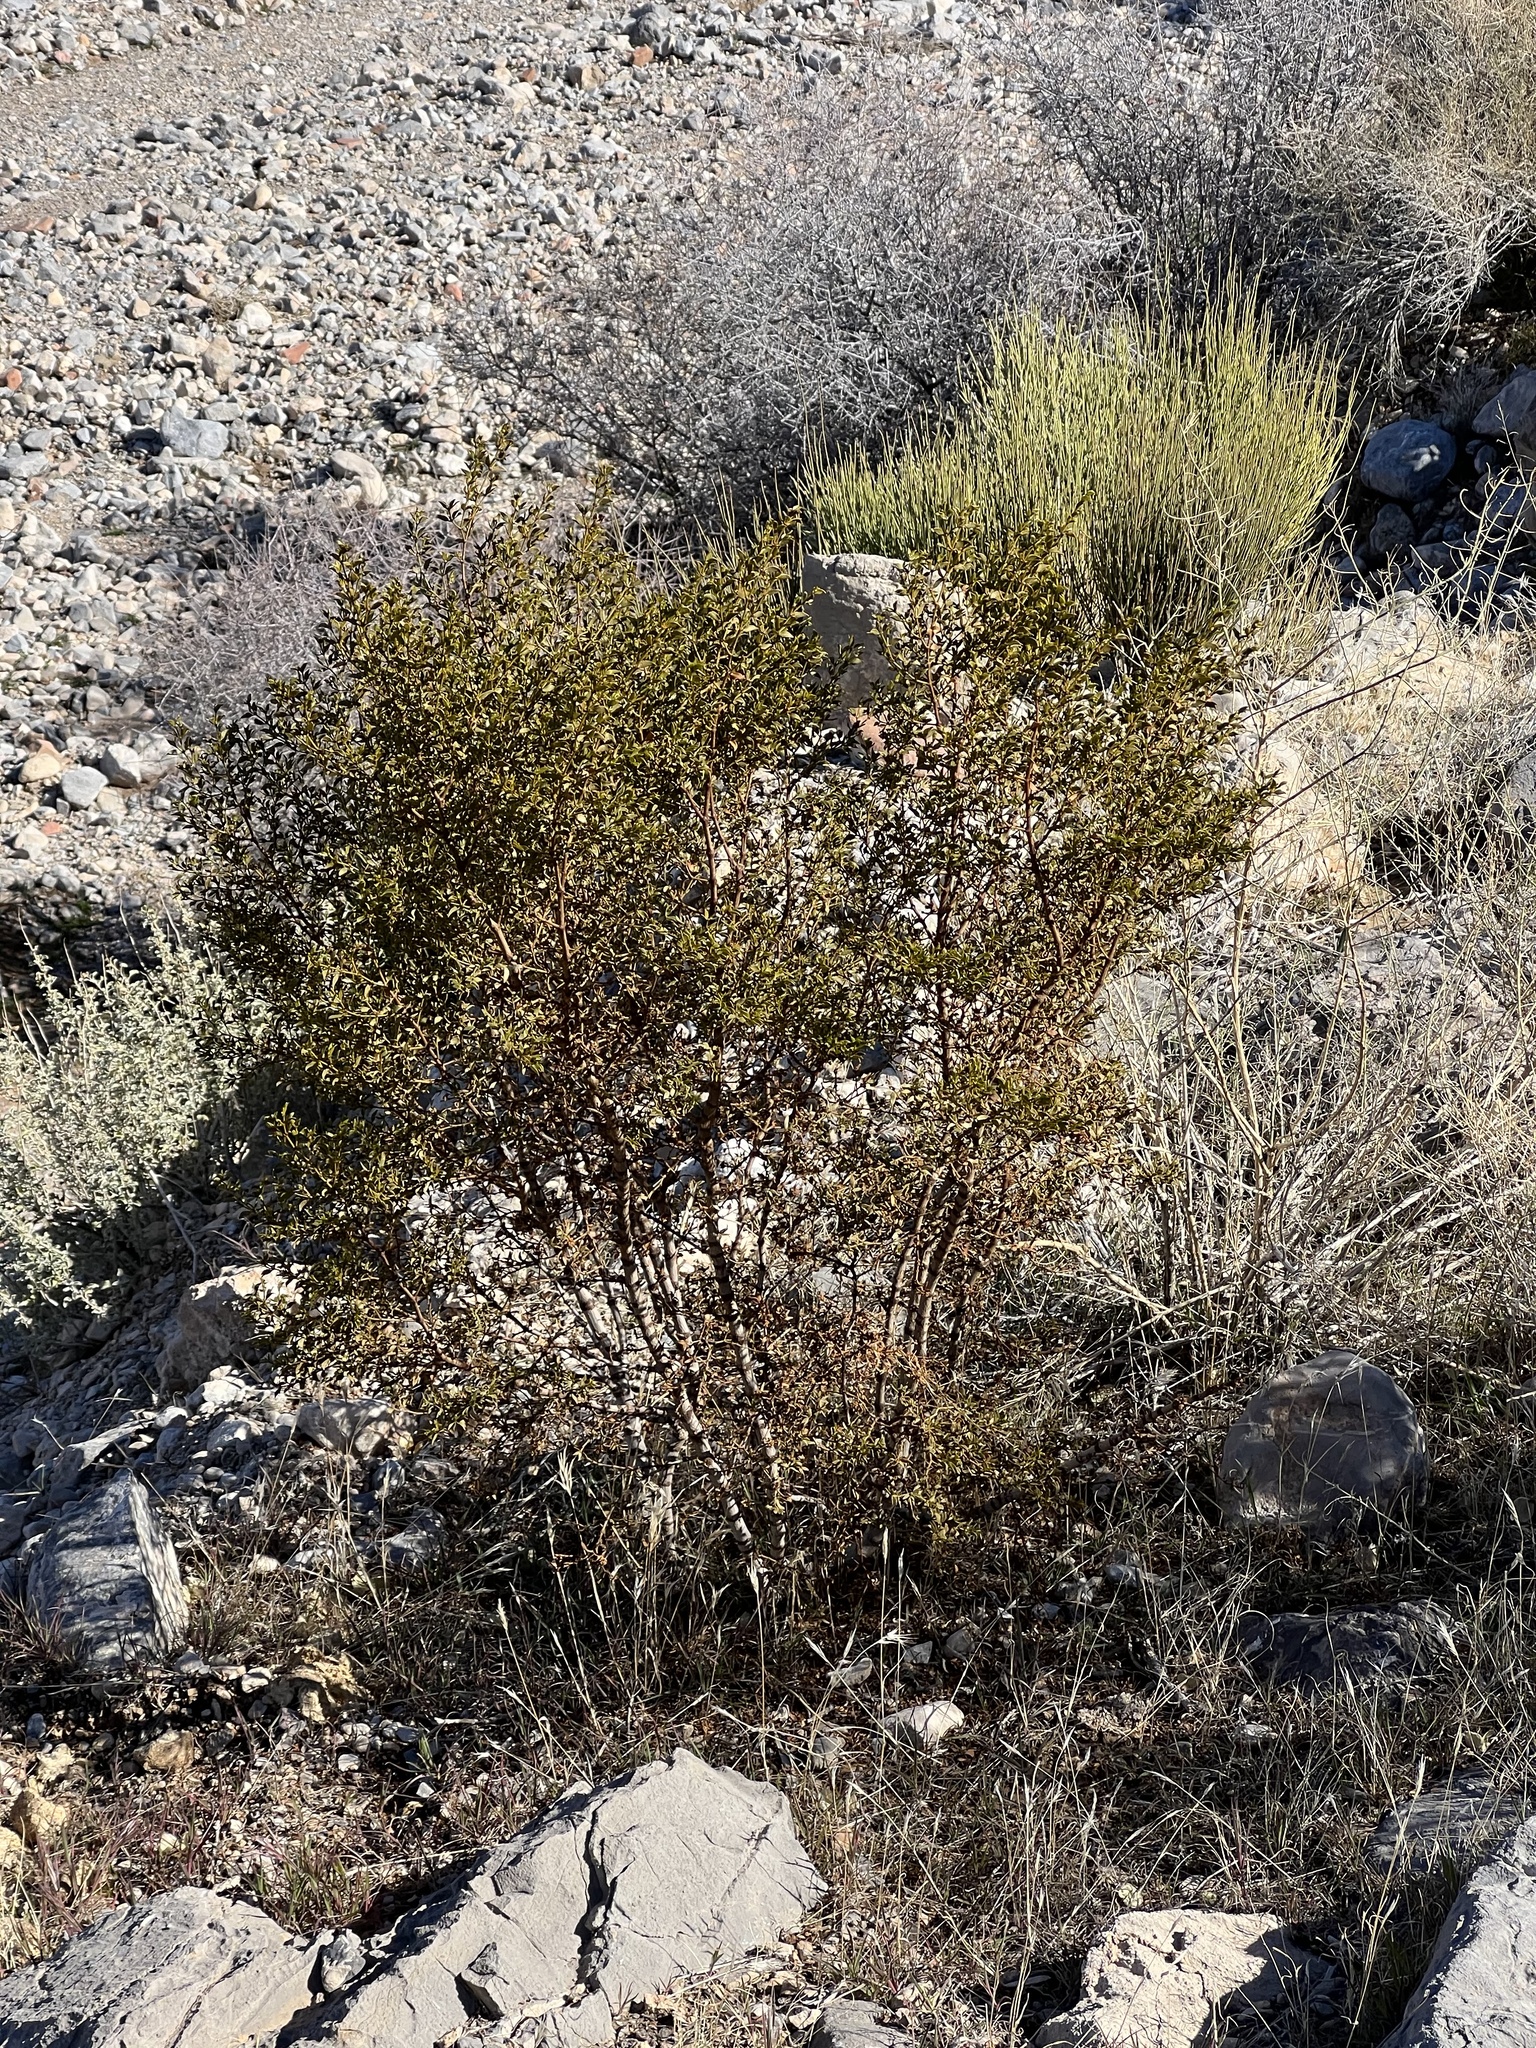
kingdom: Plantae
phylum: Tracheophyta
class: Magnoliopsida
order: Zygophyllales
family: Zygophyllaceae
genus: Larrea
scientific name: Larrea tridentata
